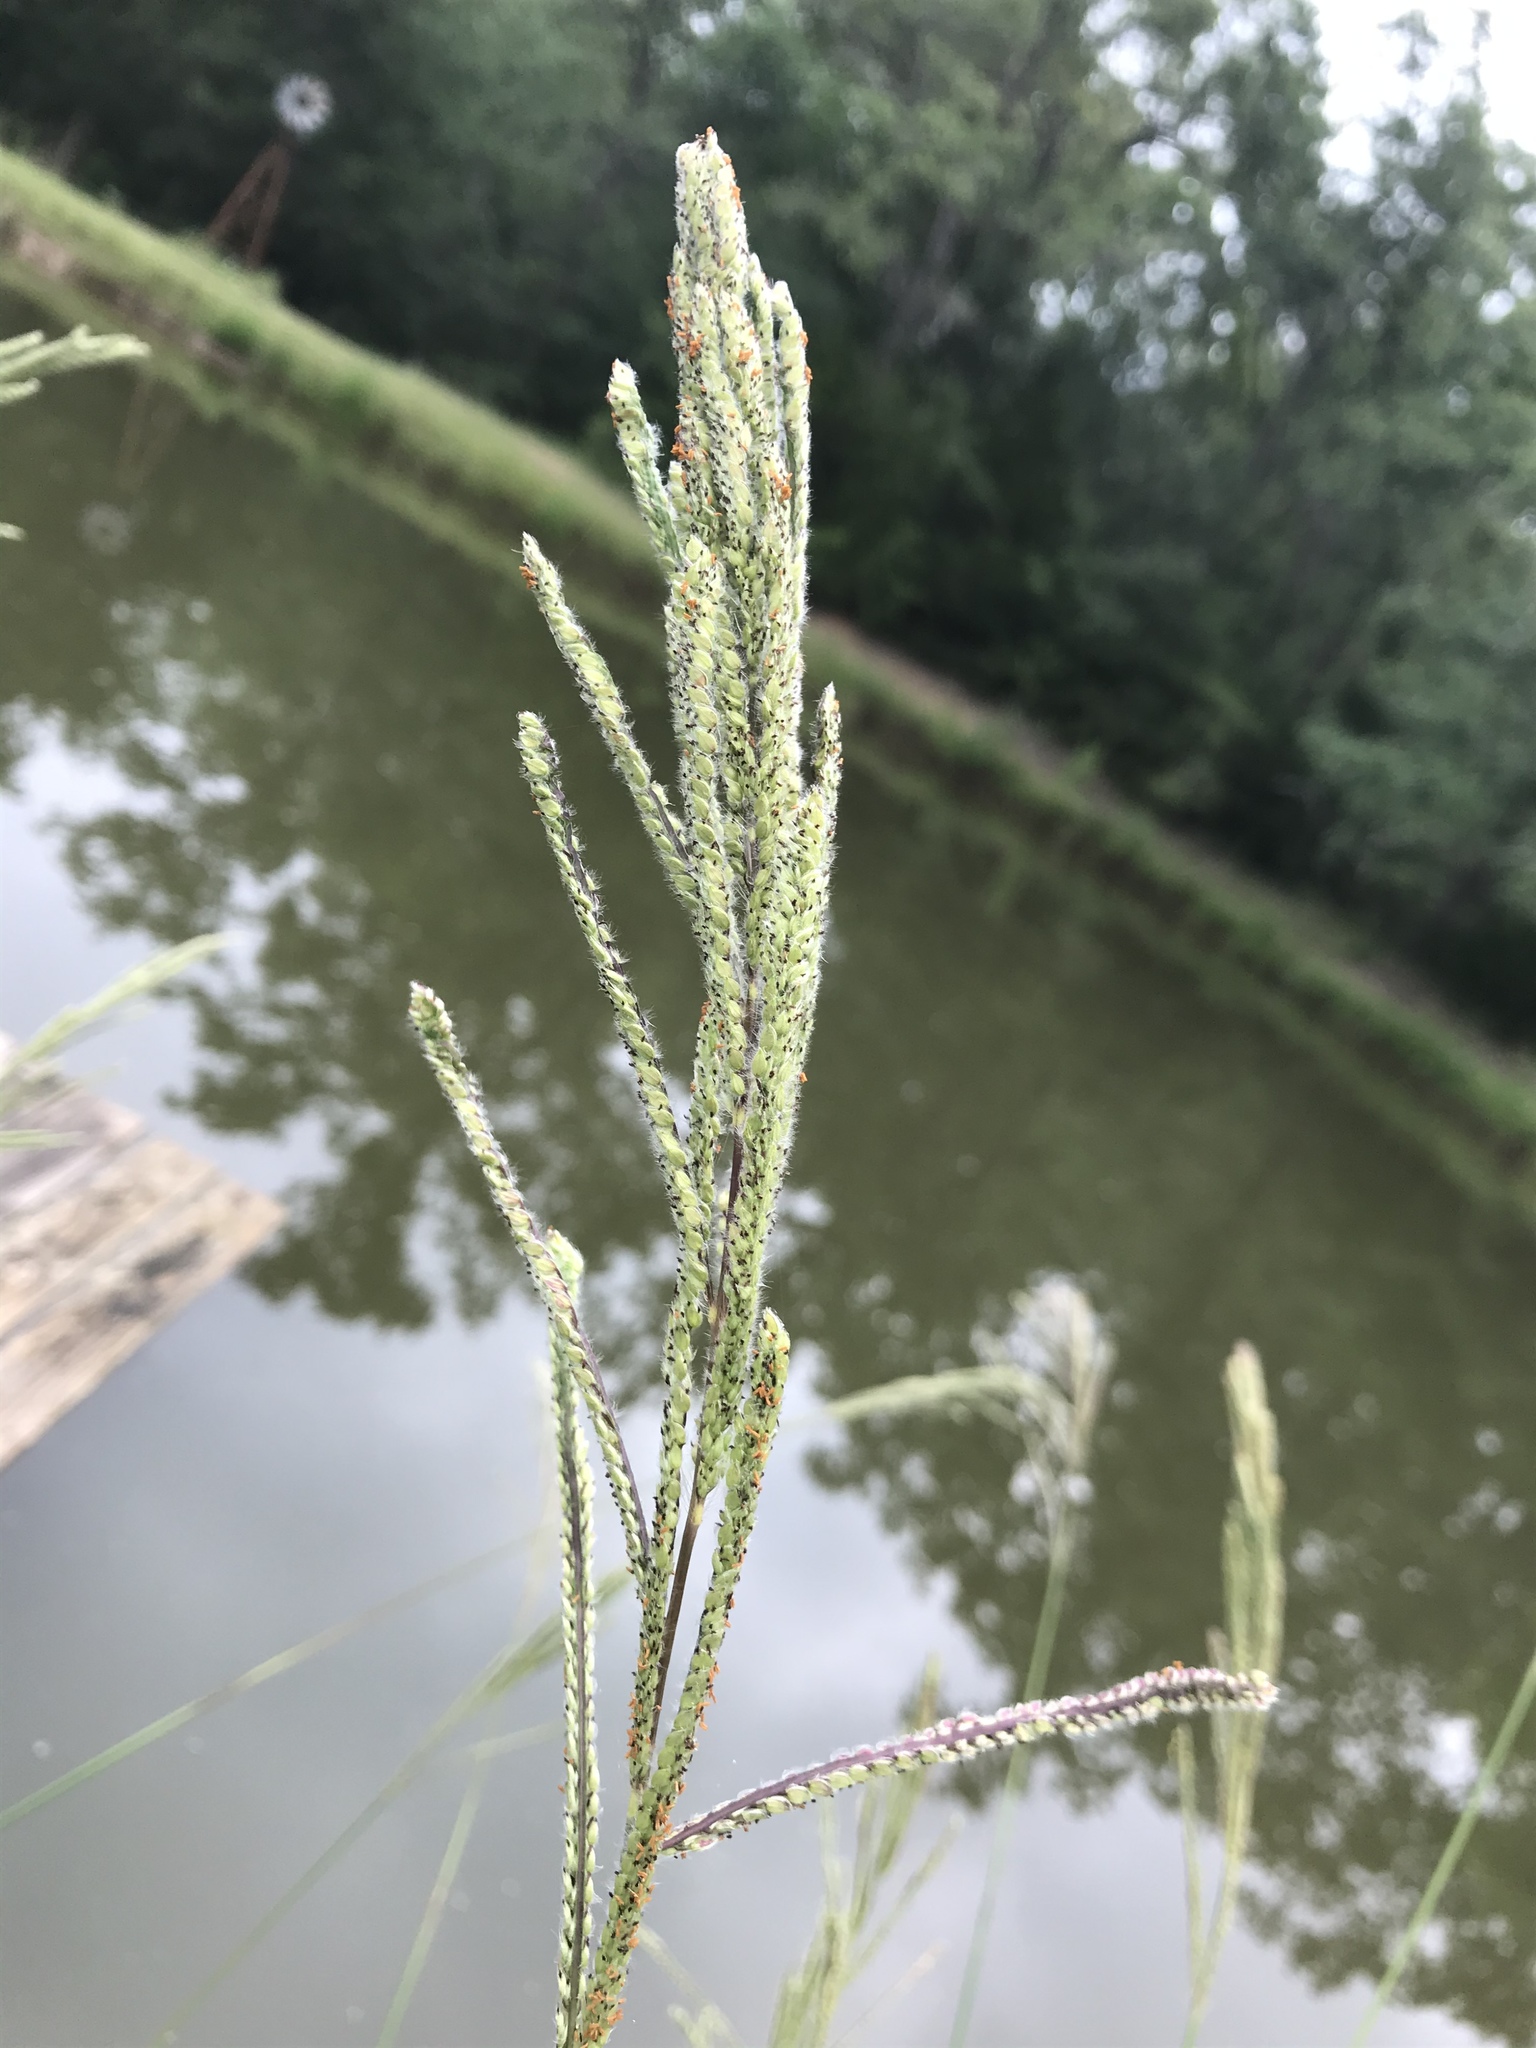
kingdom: Plantae
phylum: Tracheophyta
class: Liliopsida
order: Poales
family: Poaceae
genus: Paspalum
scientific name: Paspalum urvillei
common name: Vasey's grass
